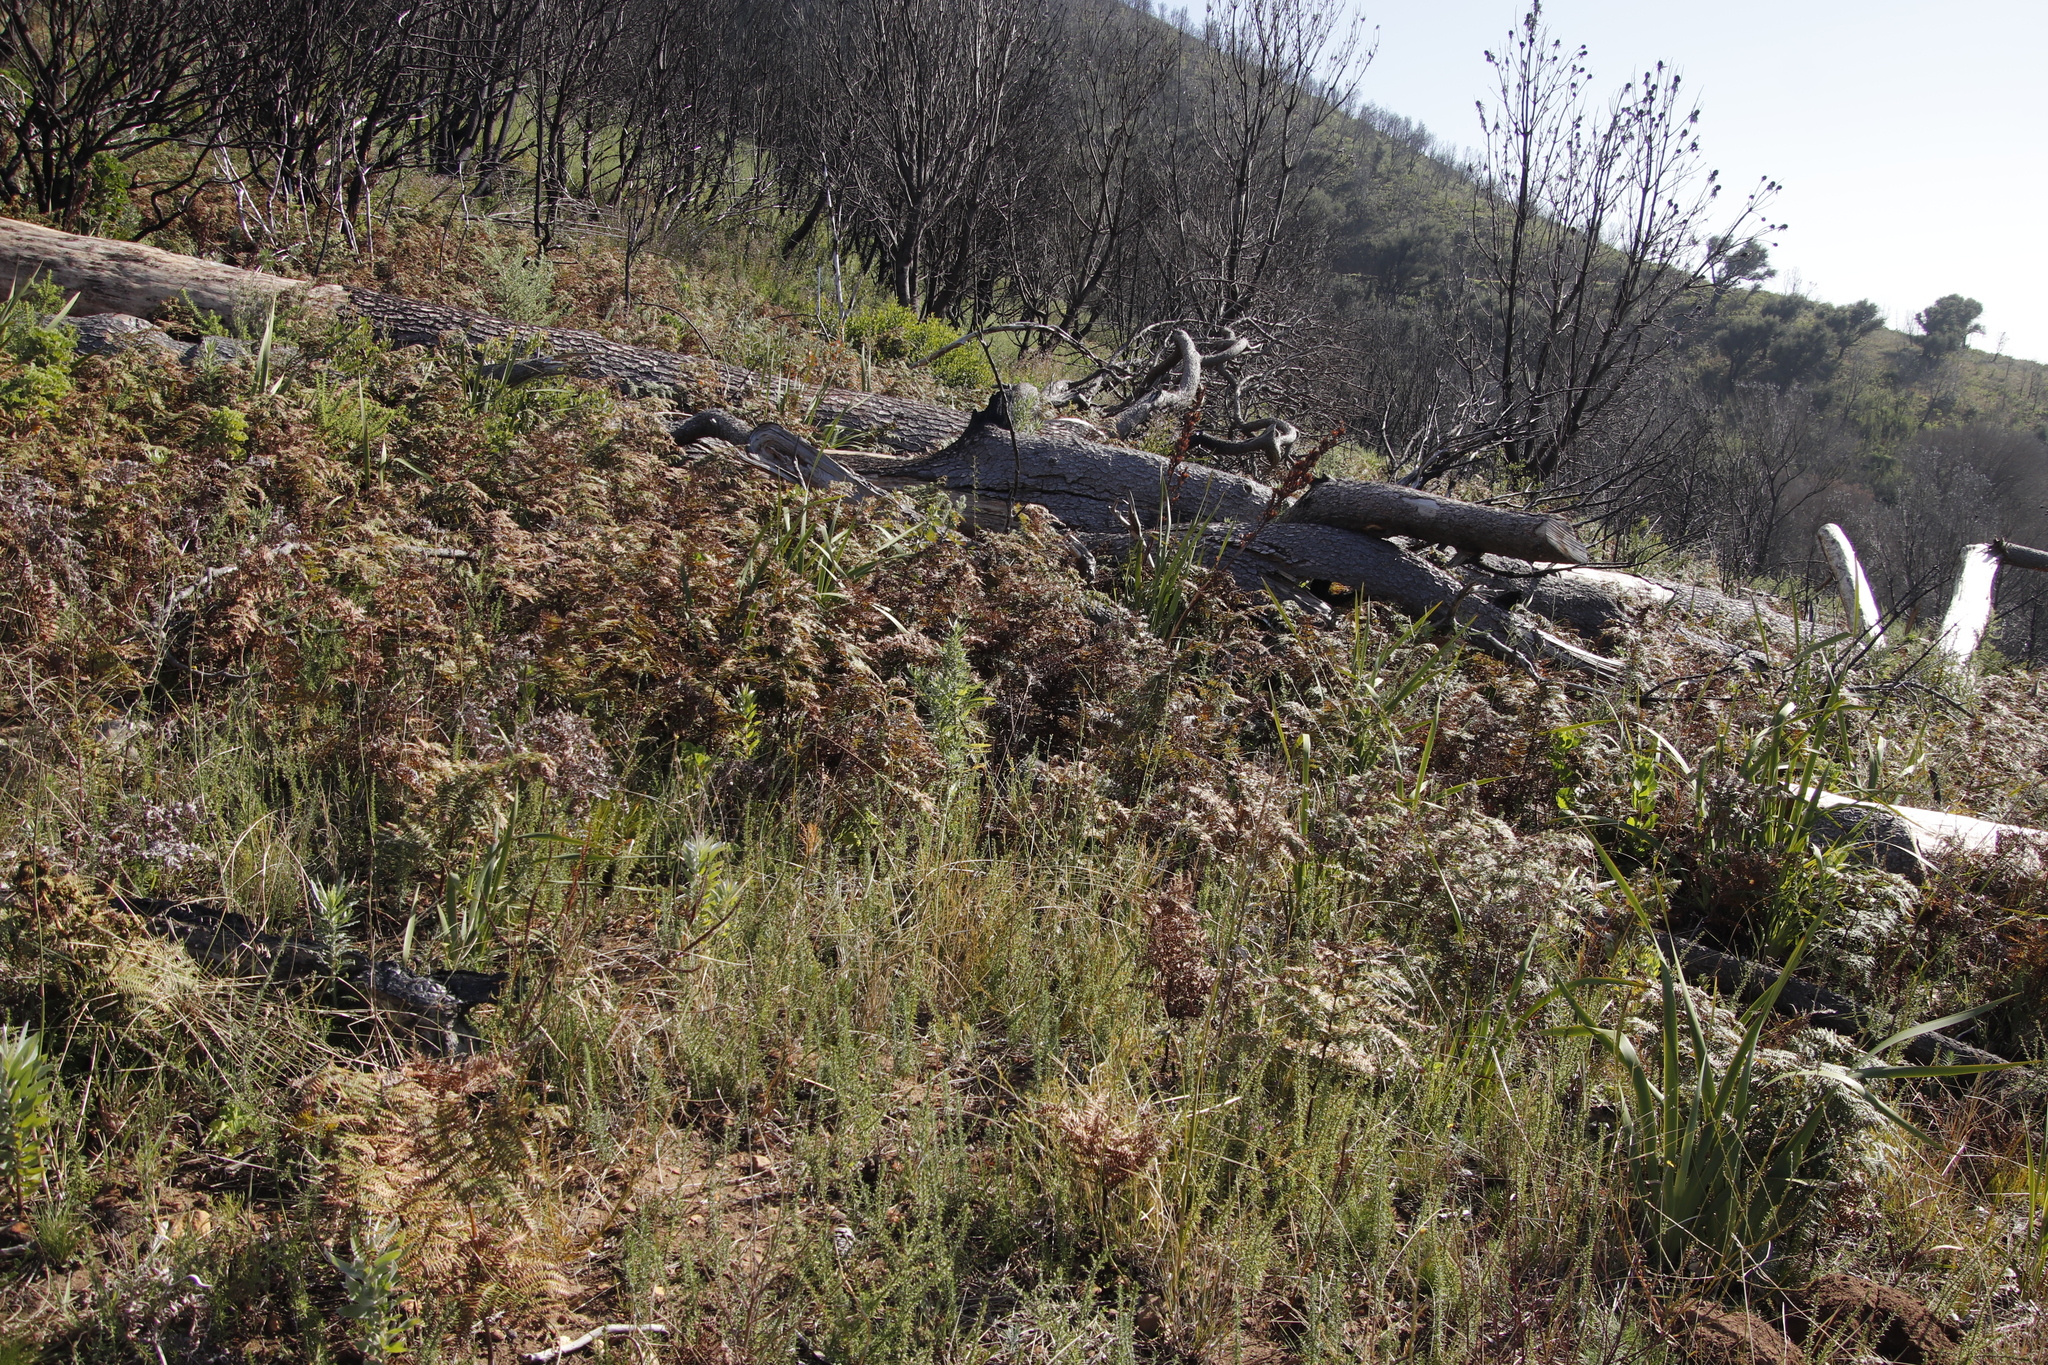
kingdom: Plantae
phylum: Tracheophyta
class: Polypodiopsida
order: Polypodiales
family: Dennstaedtiaceae
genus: Pteridium
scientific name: Pteridium aquilinum
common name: Bracken
